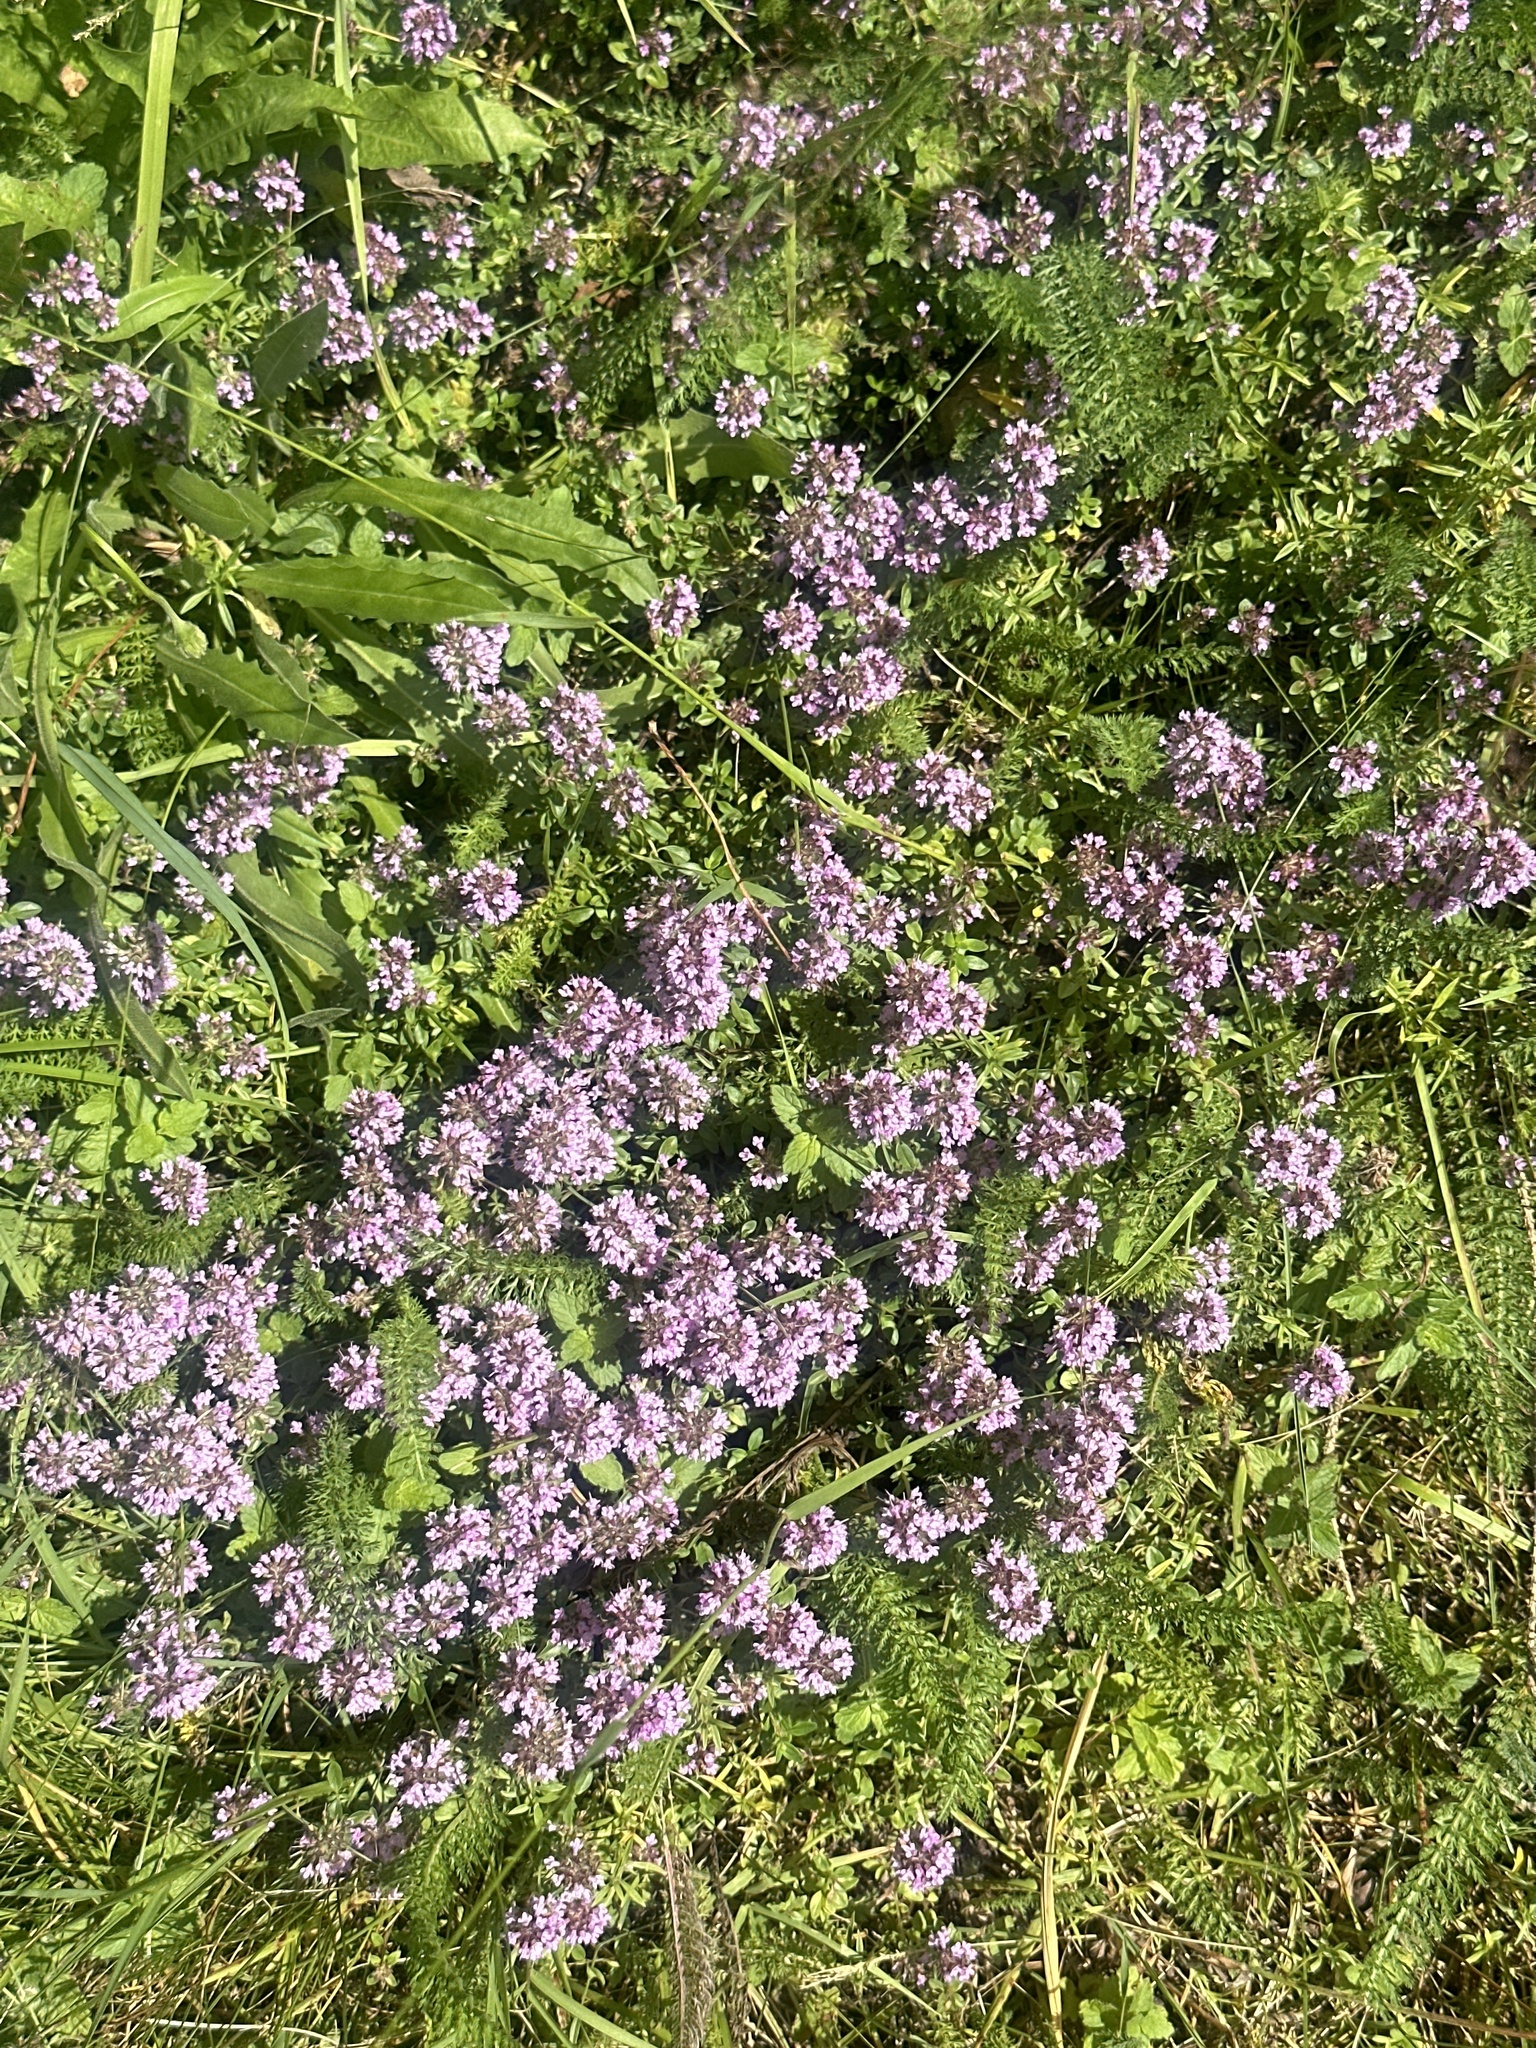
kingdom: Plantae
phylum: Tracheophyta
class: Magnoliopsida
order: Lamiales
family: Lamiaceae
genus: Thymus
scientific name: Thymus pulegioides
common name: Large thyme
